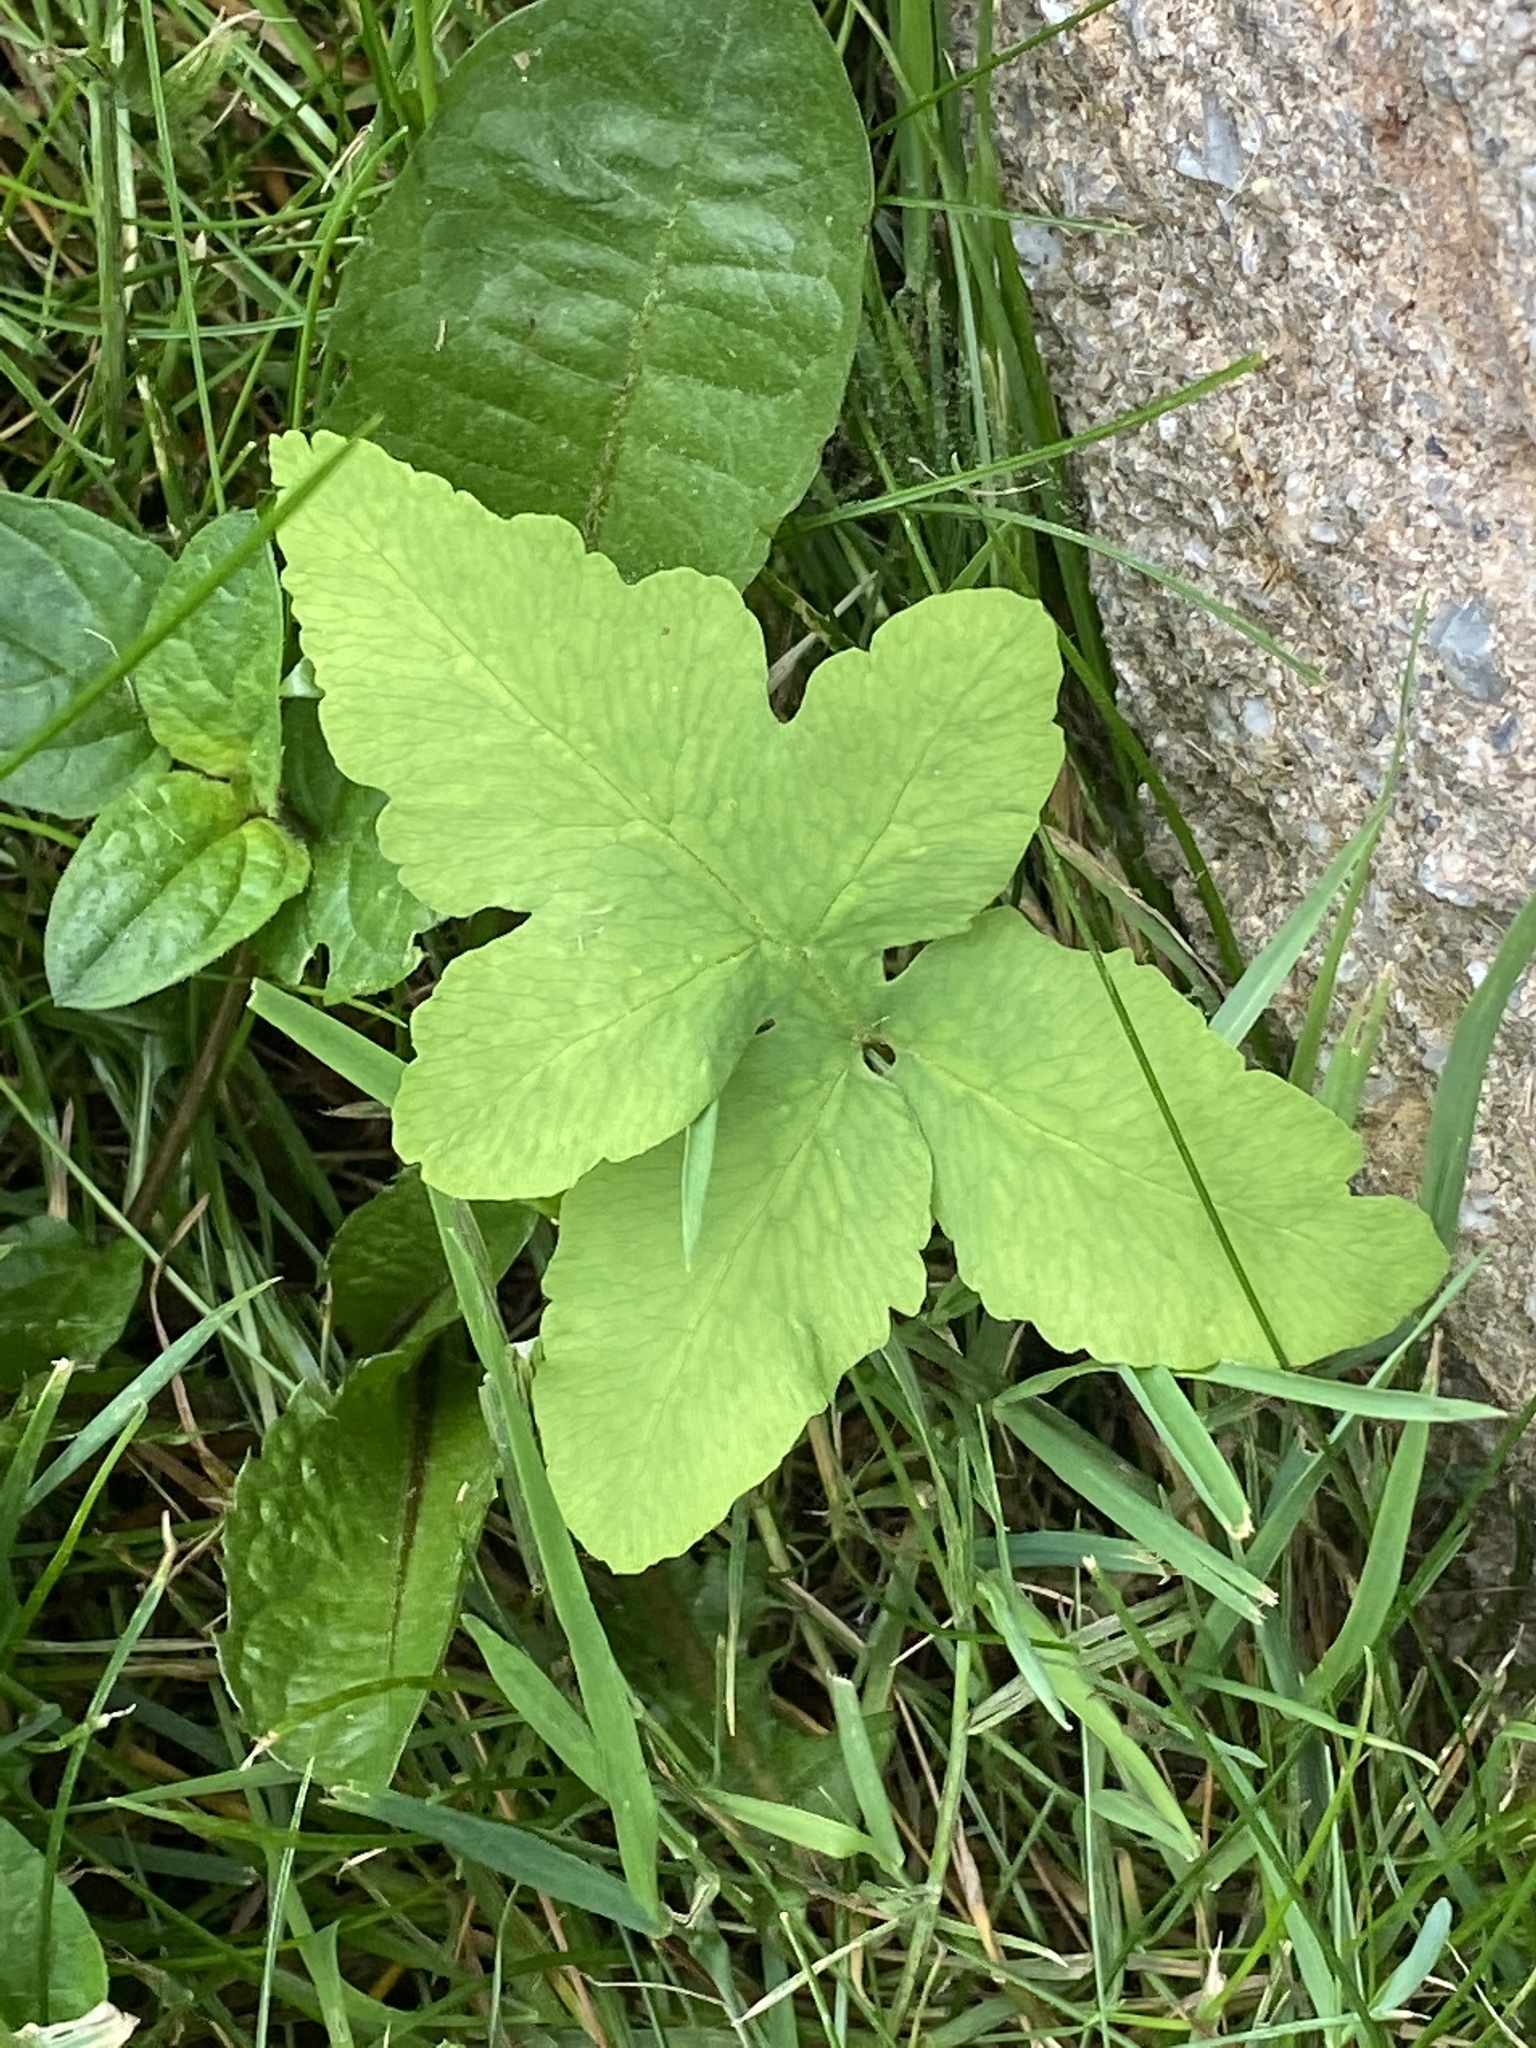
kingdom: Plantae
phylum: Tracheophyta
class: Polypodiopsida
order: Polypodiales
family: Onocleaceae
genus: Onoclea
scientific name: Onoclea sensibilis
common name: Sensitive fern
